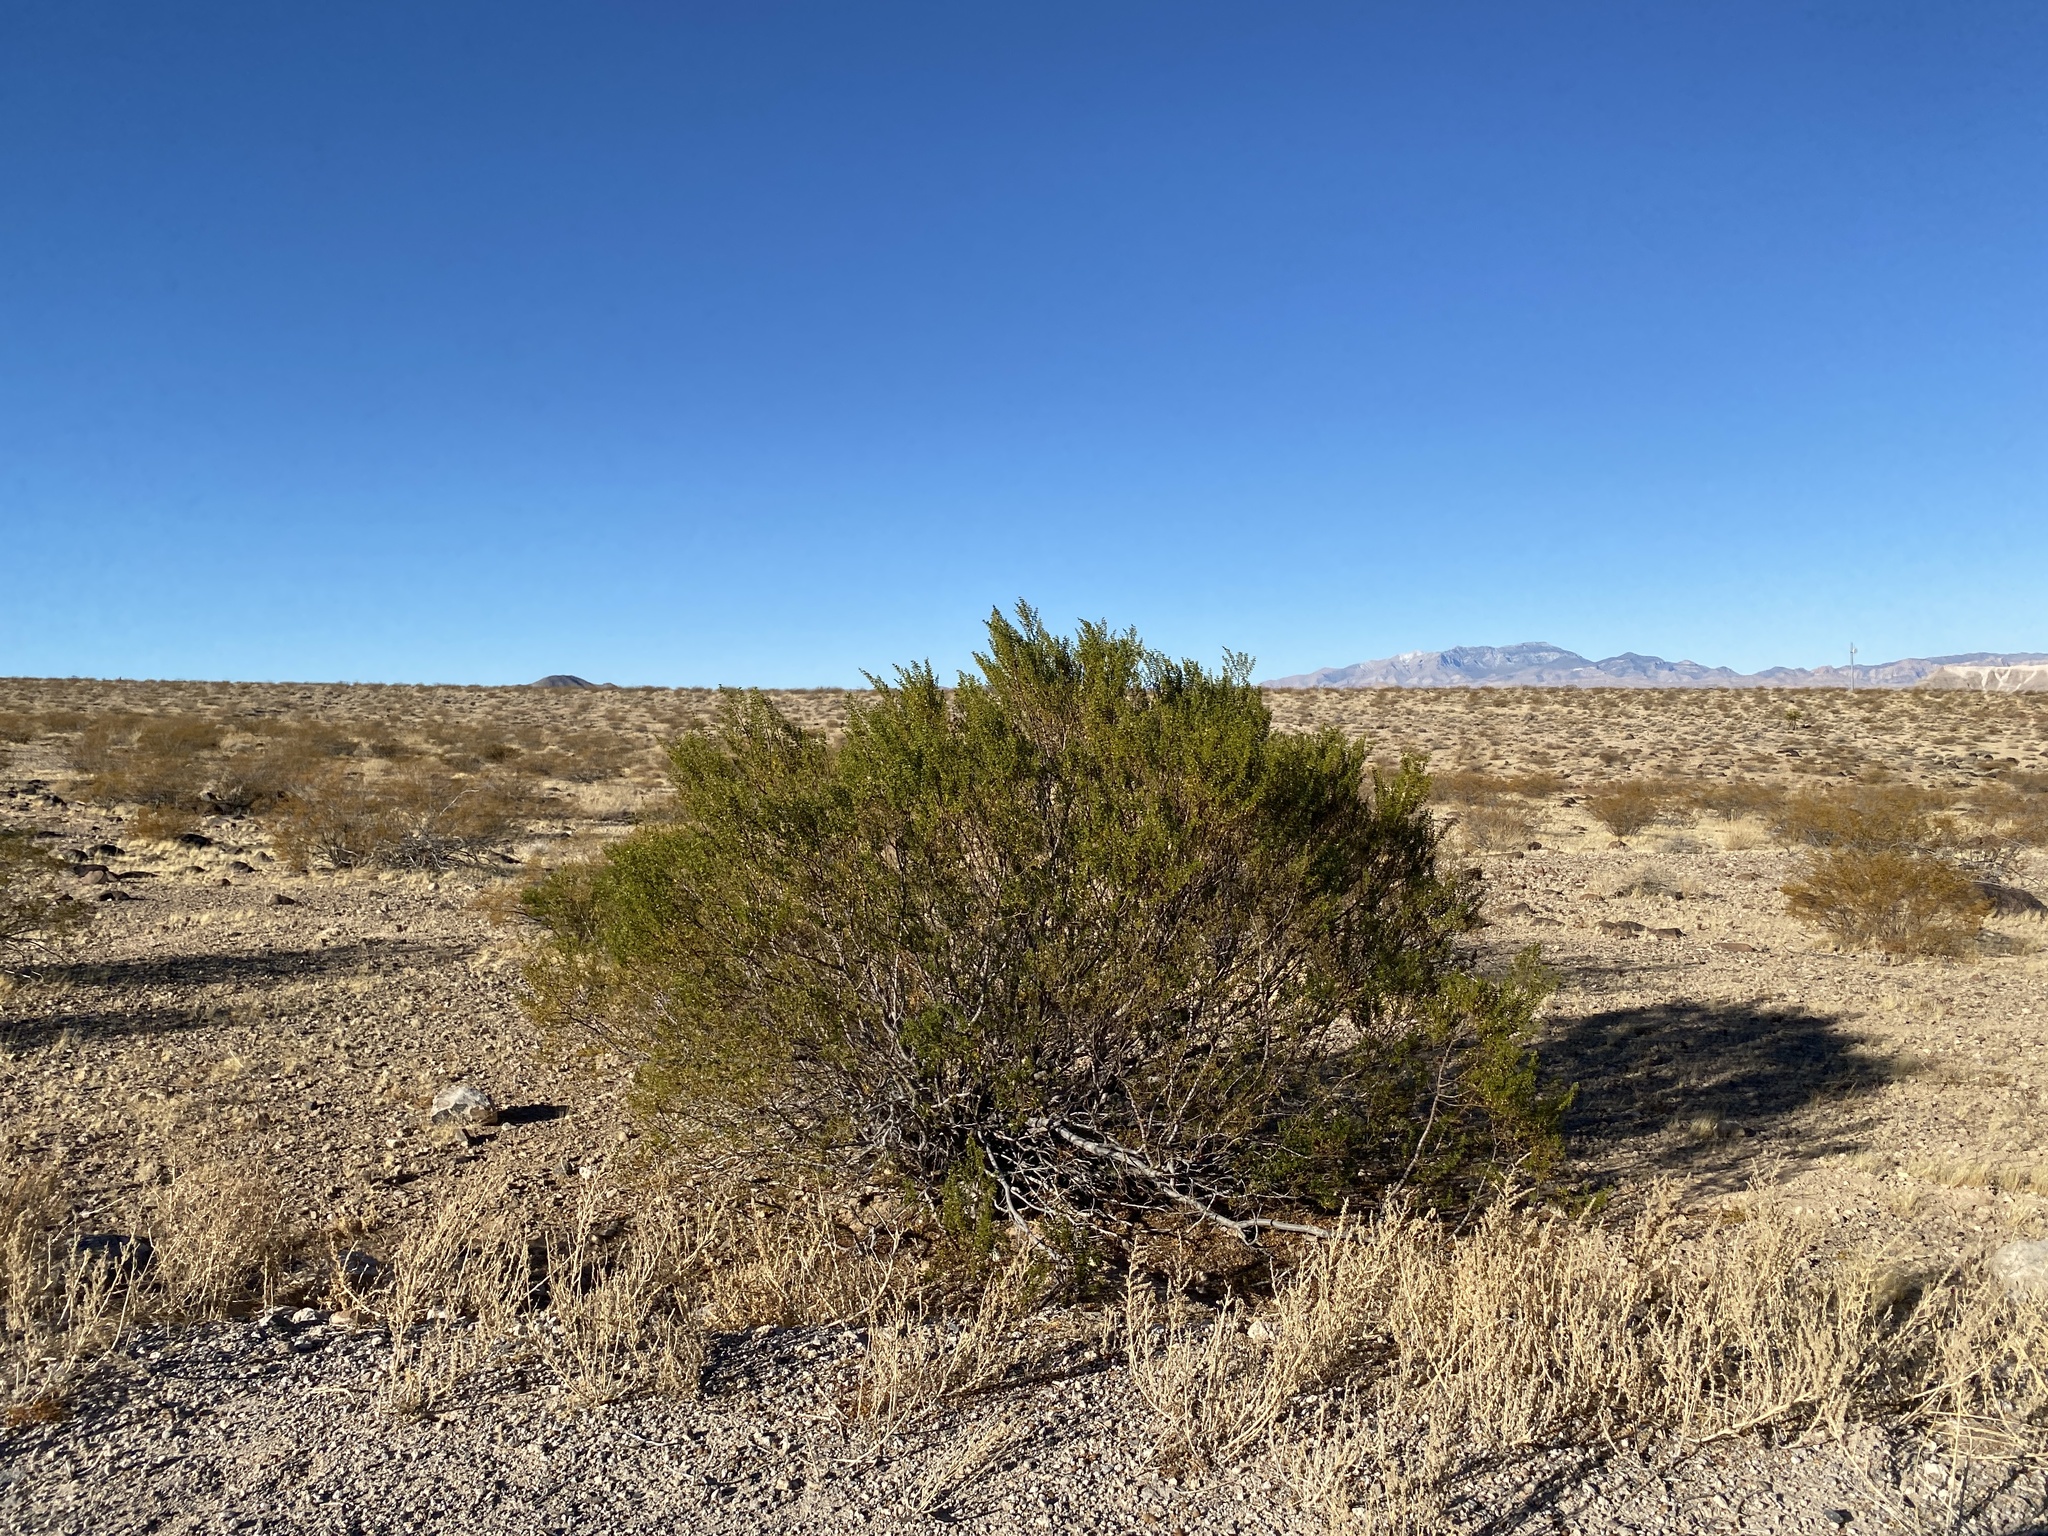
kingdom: Plantae
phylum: Tracheophyta
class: Magnoliopsida
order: Zygophyllales
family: Zygophyllaceae
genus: Larrea
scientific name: Larrea tridentata
